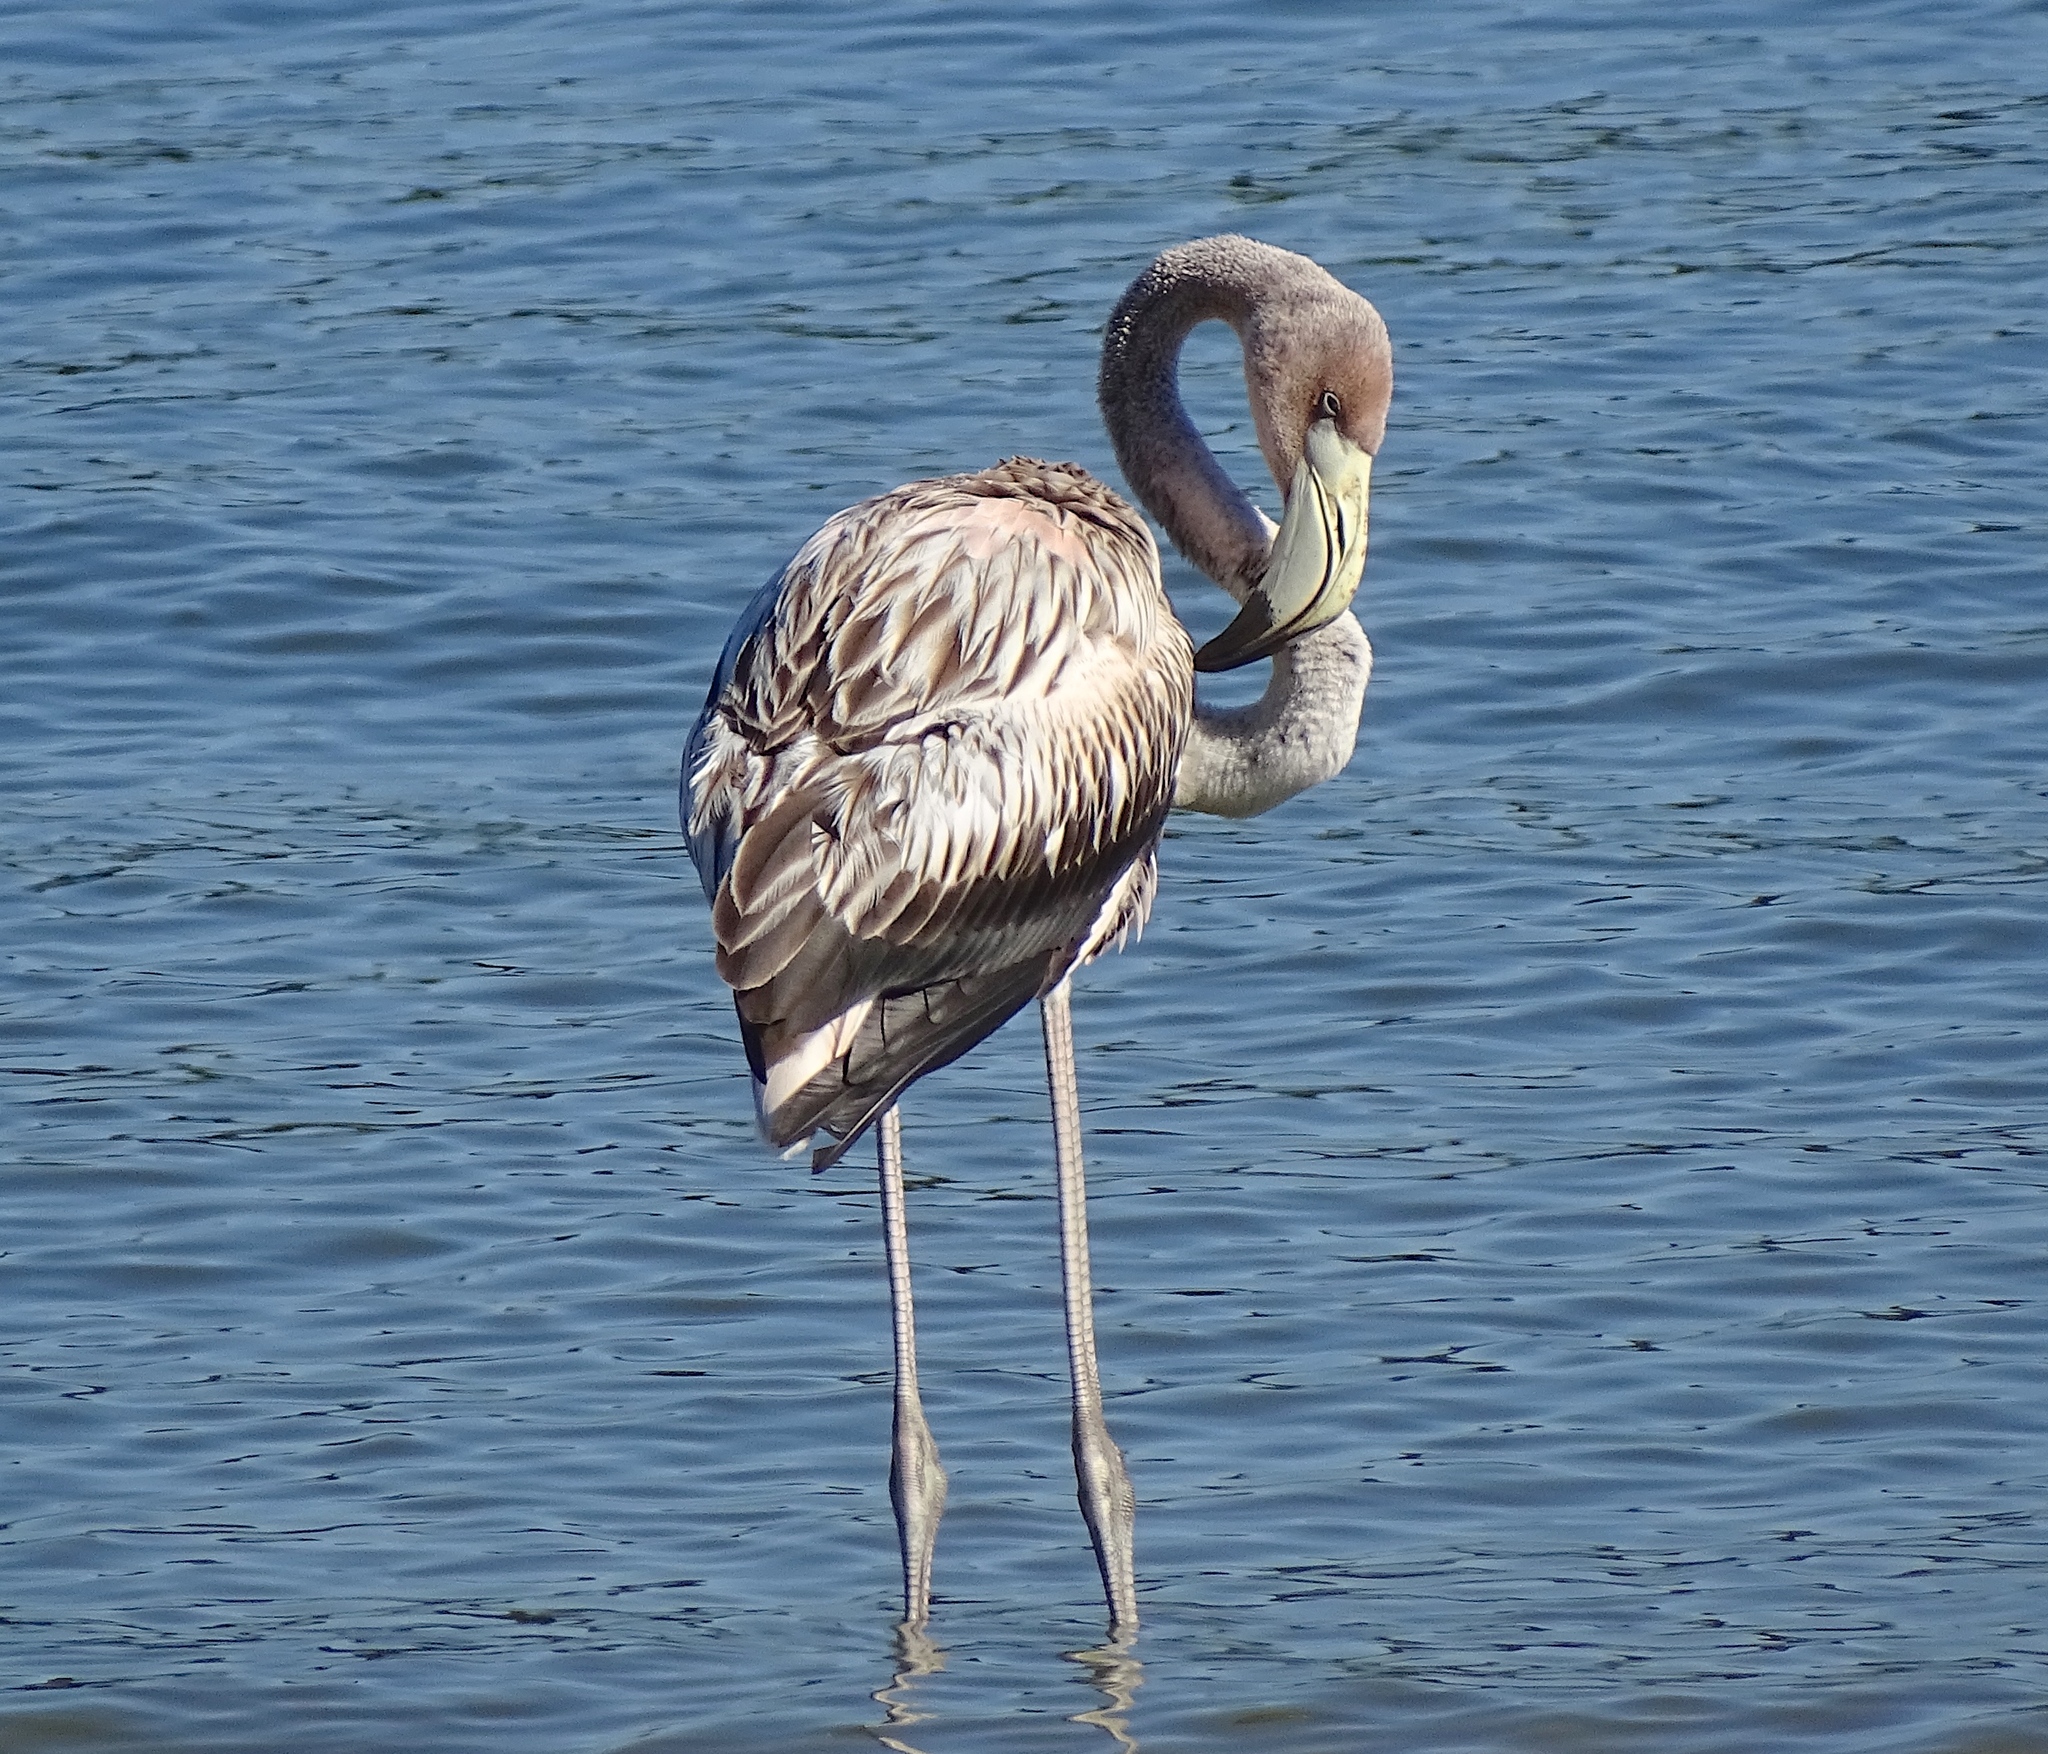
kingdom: Animalia
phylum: Chordata
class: Aves
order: Phoenicopteriformes
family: Phoenicopteridae
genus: Phoenicopterus
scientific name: Phoenicopterus ruber
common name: American flamingo
